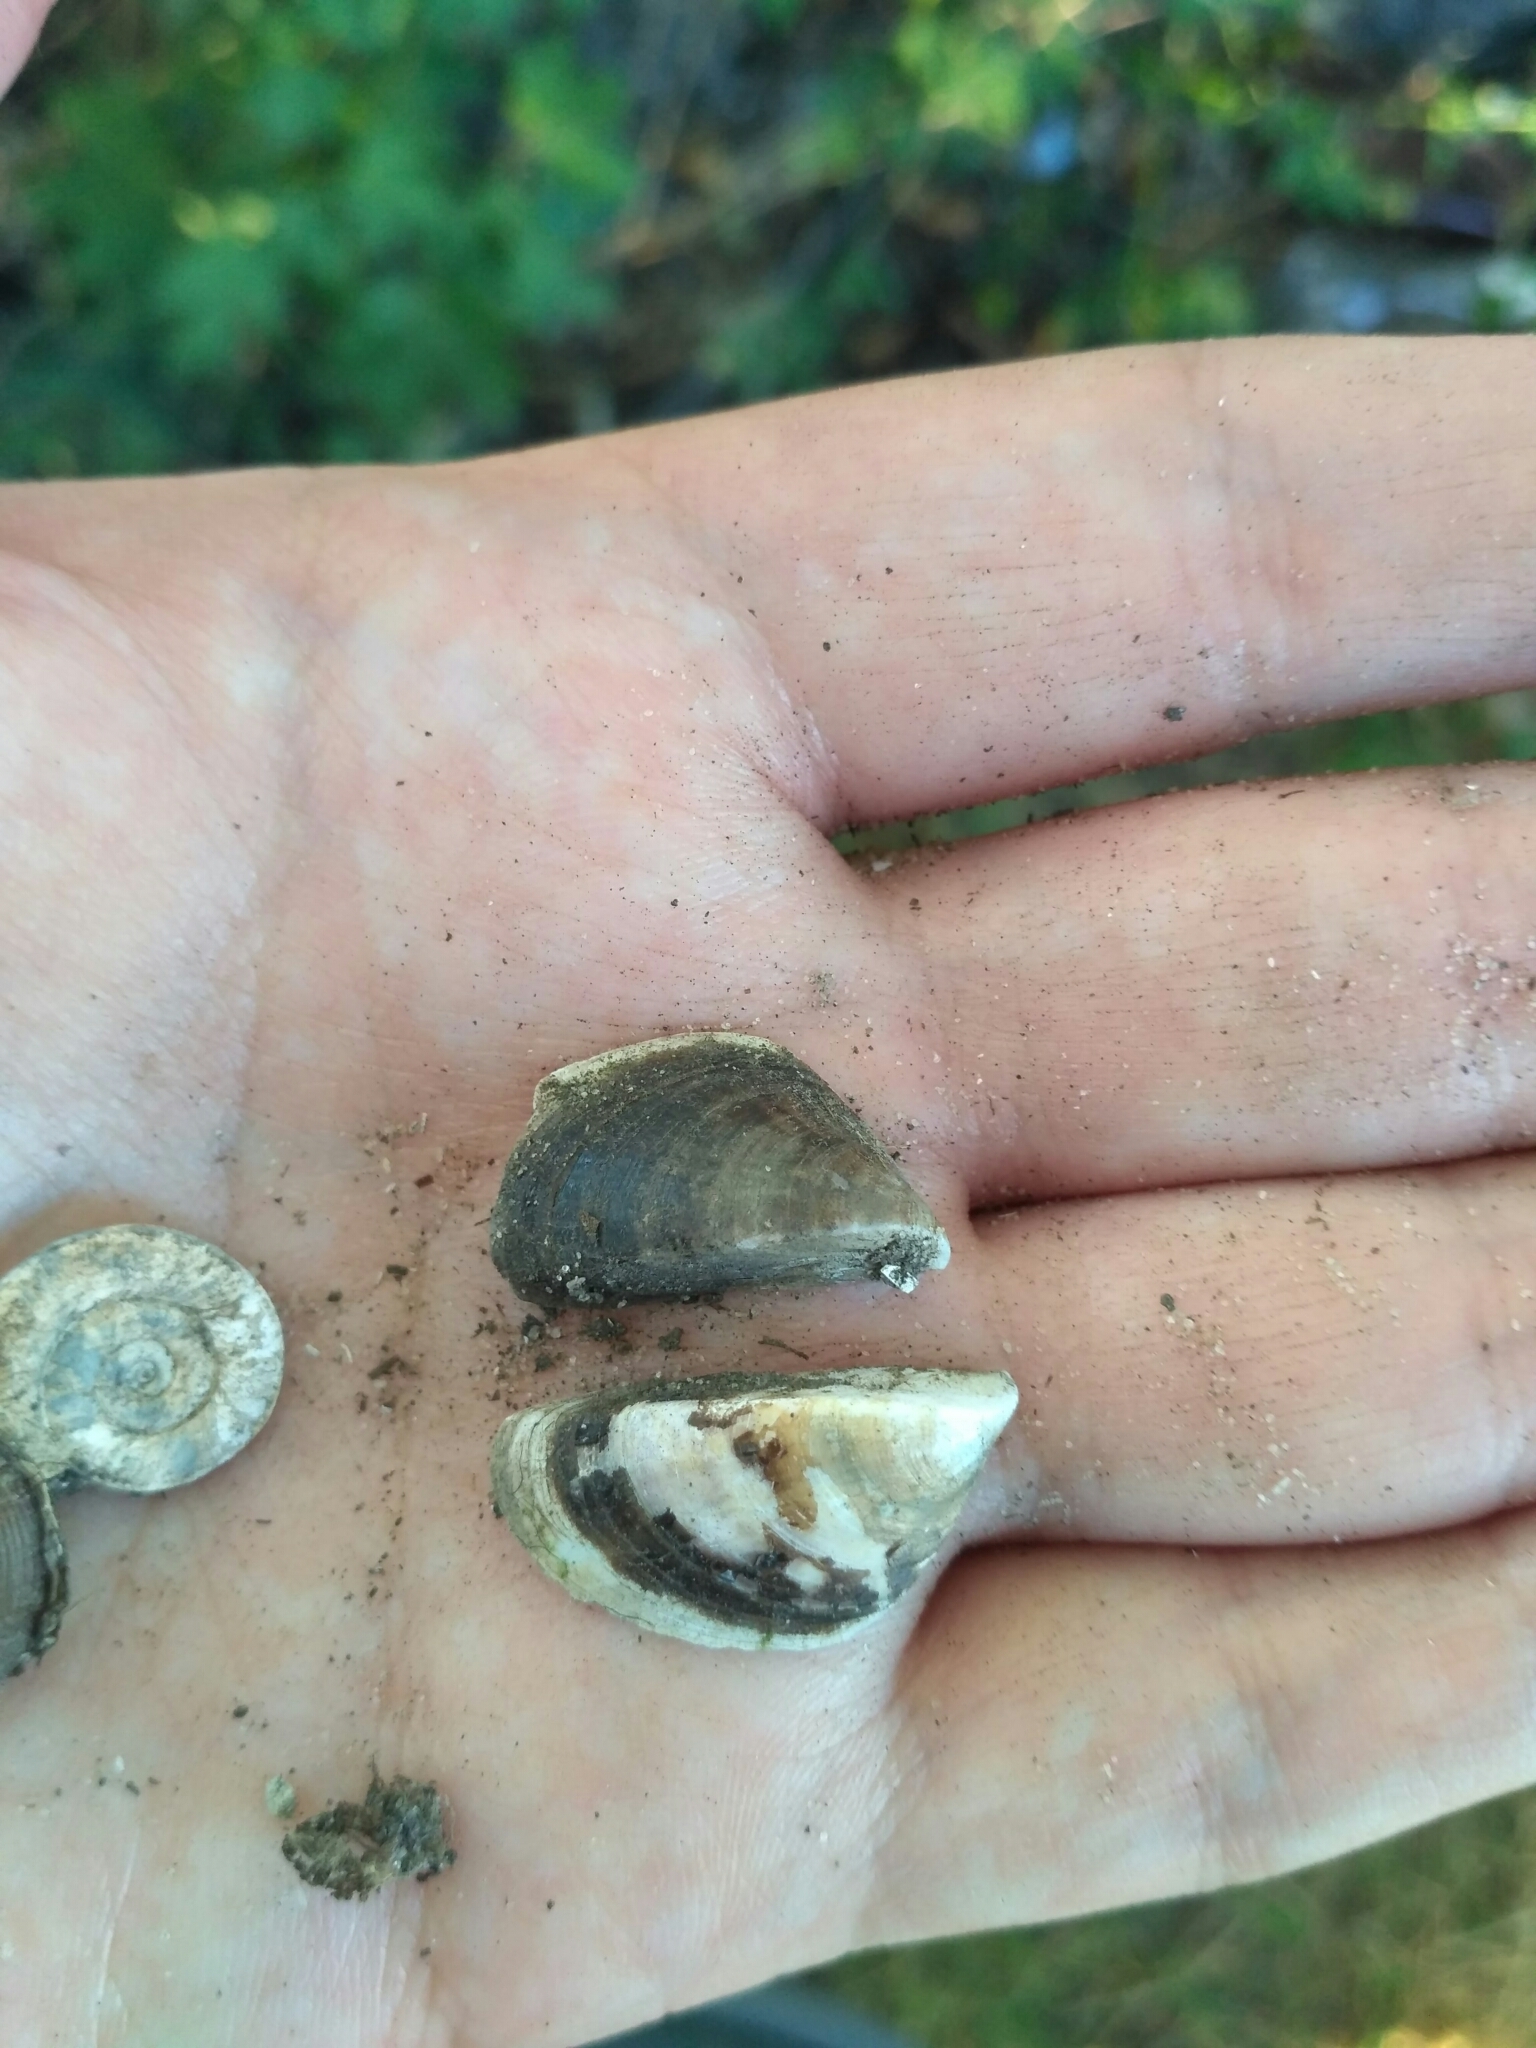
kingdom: Animalia
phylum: Mollusca
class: Bivalvia
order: Myida
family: Dreissenidae
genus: Dreissena
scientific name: Dreissena polymorpha
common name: Zebra mussel
